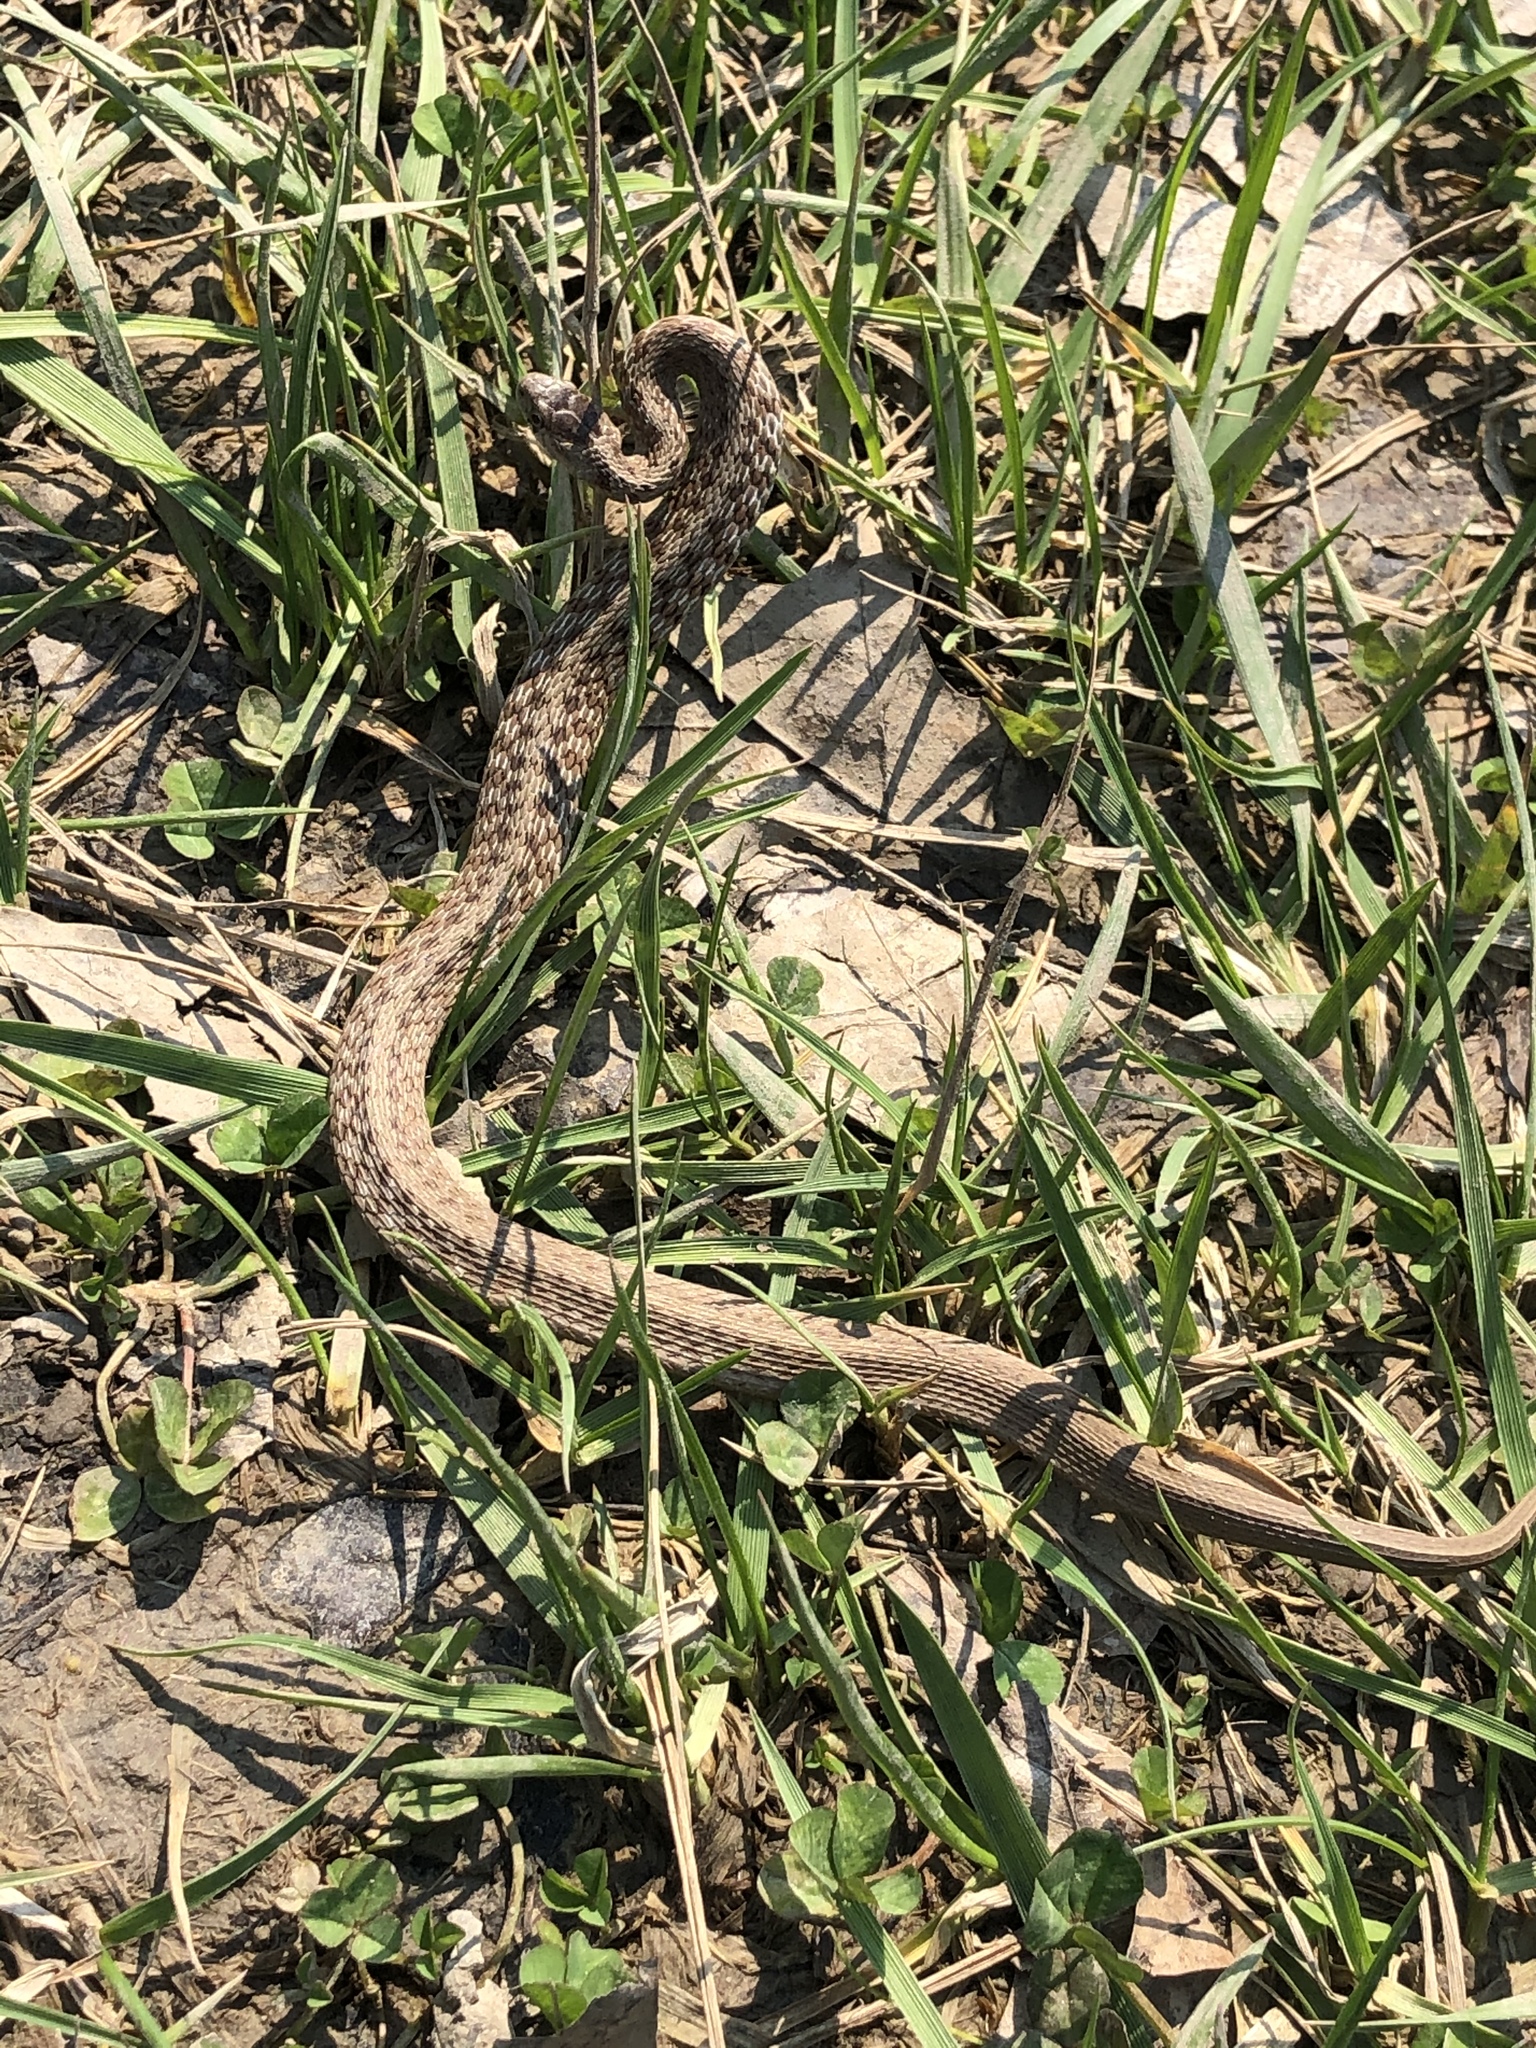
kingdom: Animalia
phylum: Chordata
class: Squamata
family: Colubridae
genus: Storeria
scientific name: Storeria dekayi
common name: (dekay’s) brown snake
